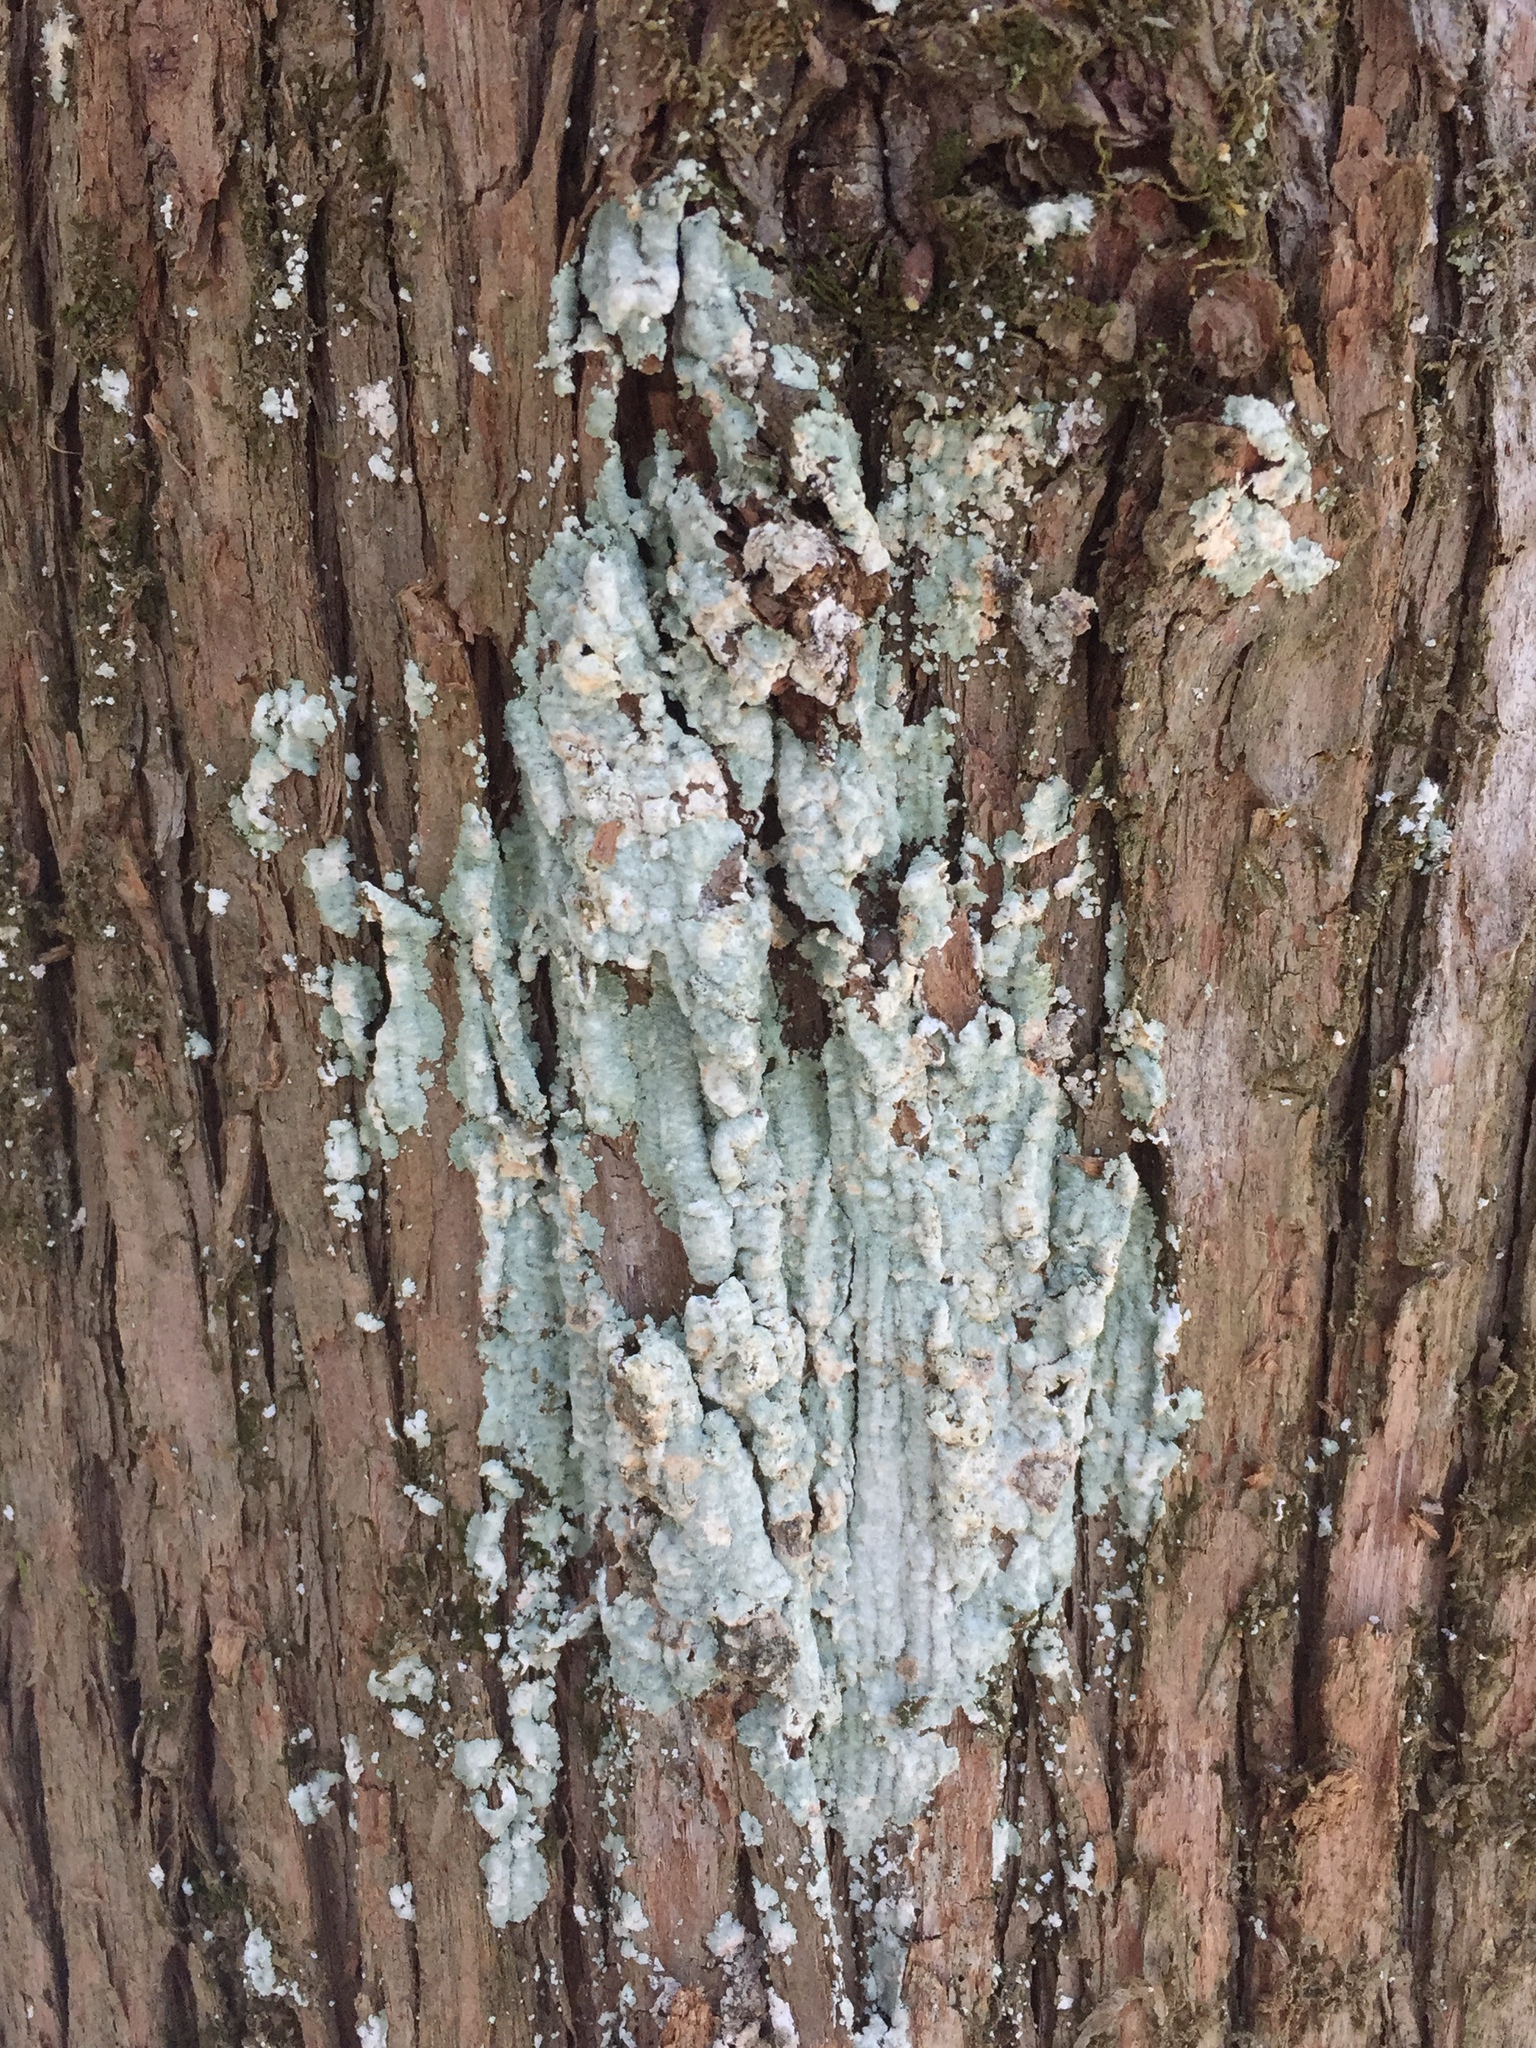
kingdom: Fungi
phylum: Ascomycota
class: Lecanoromycetes
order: Lecanorales
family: Stereocaulaceae
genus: Lepraria
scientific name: Lepraria lobificans
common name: Fluffy dust lichen
